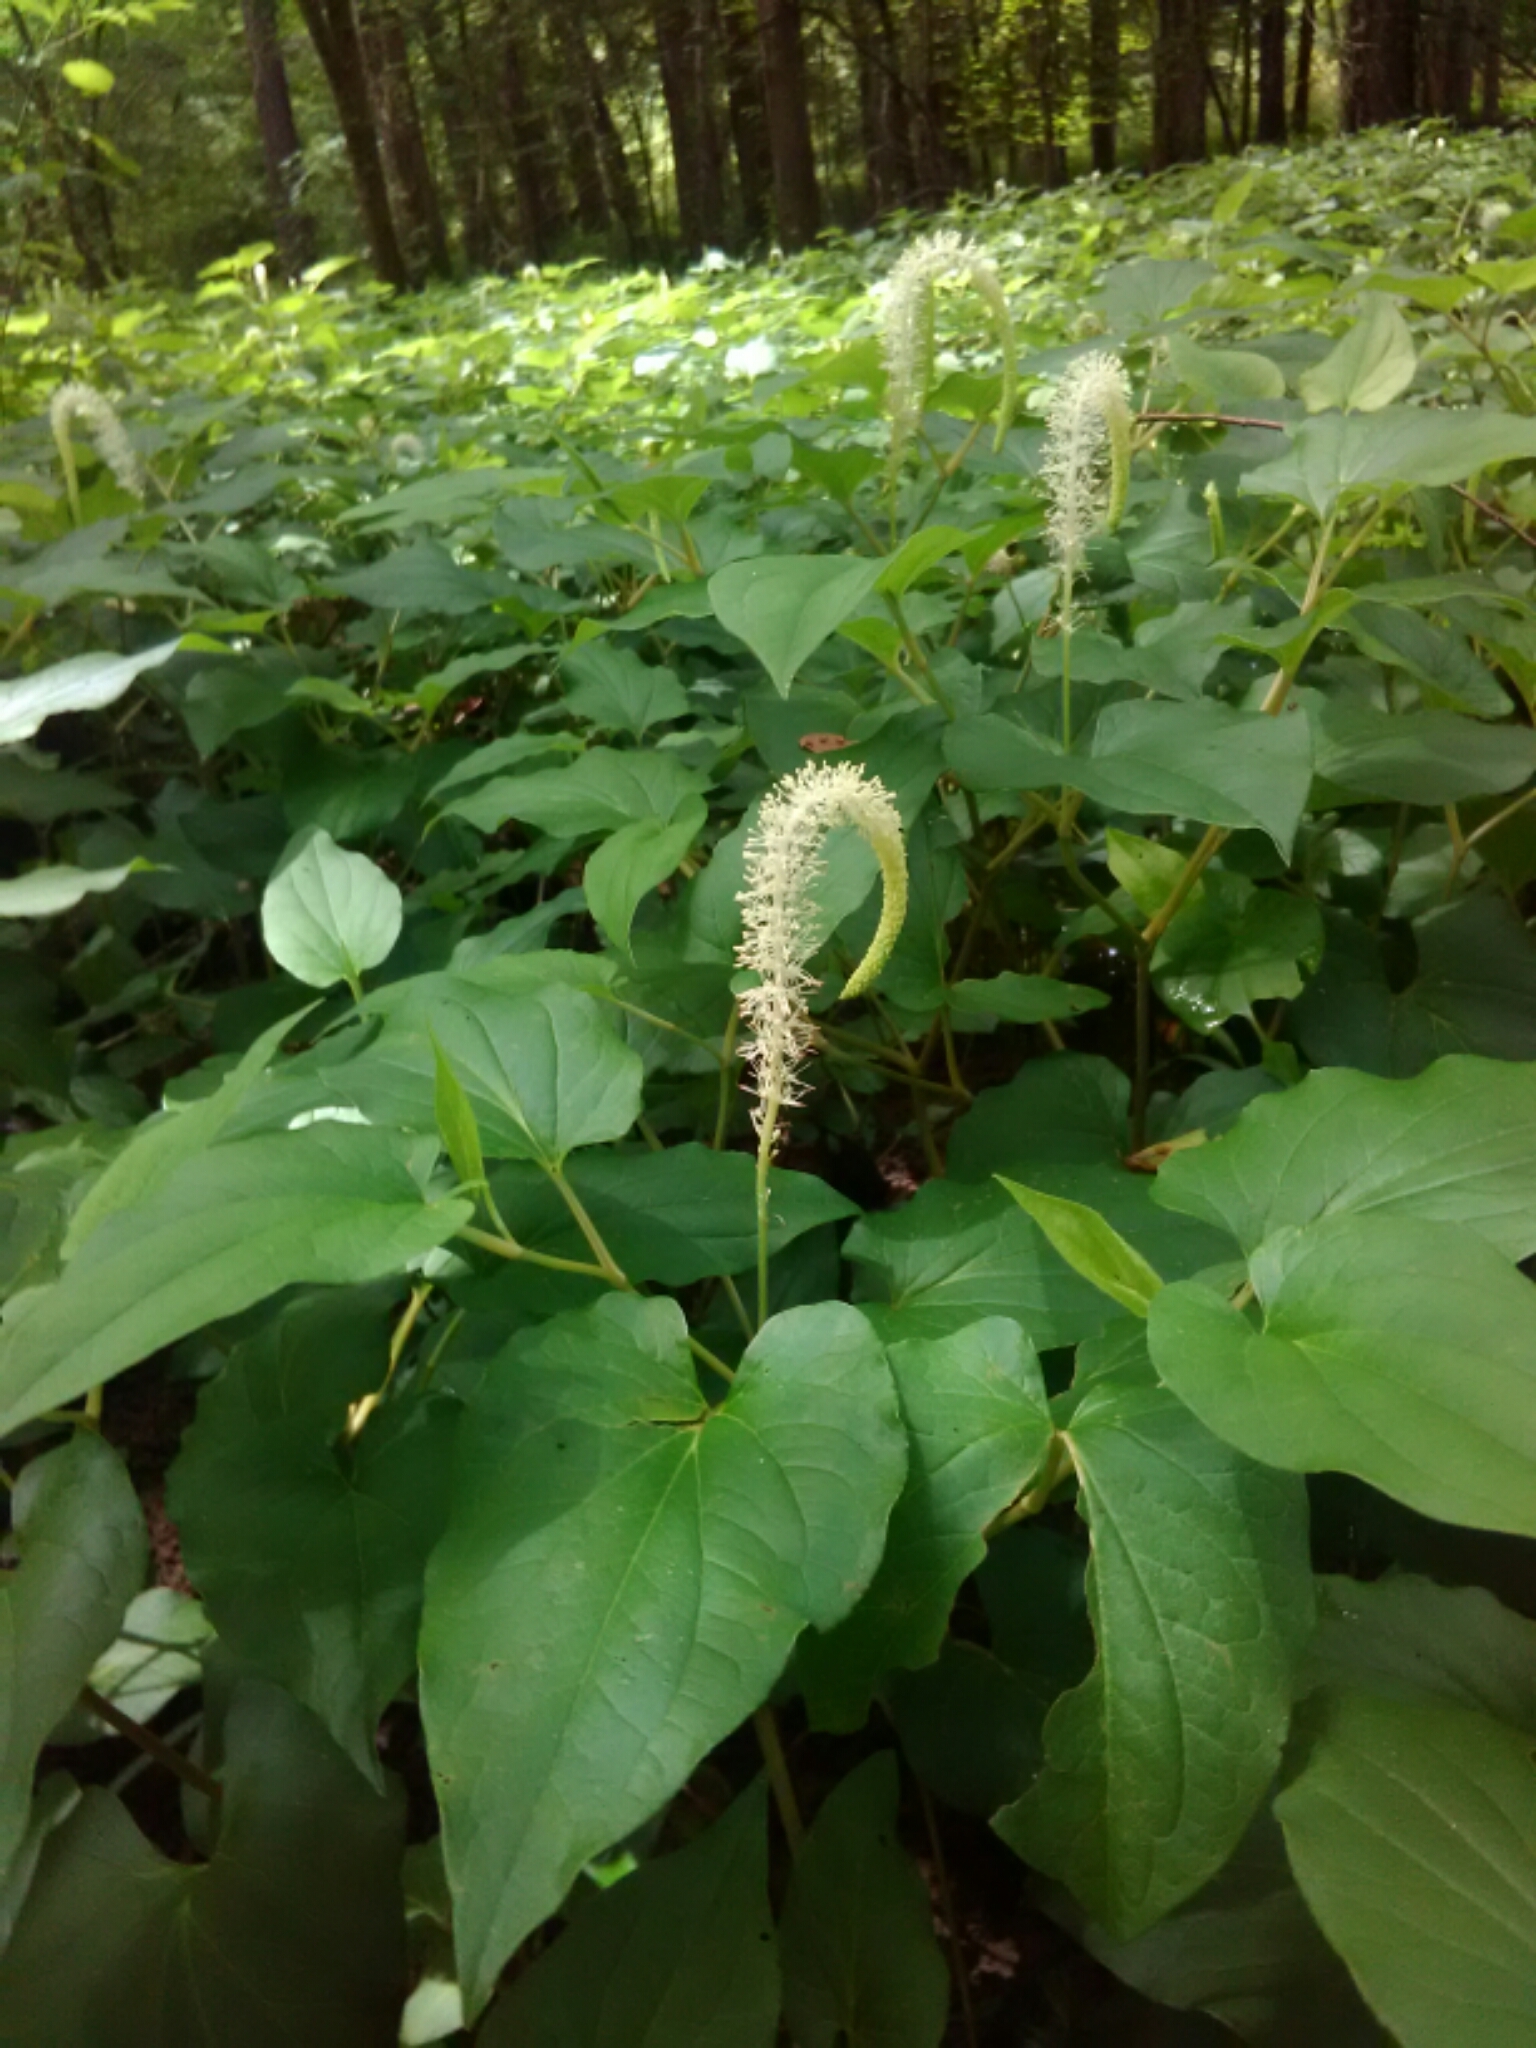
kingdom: Plantae
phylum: Tracheophyta
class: Magnoliopsida
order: Piperales
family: Saururaceae
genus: Saururus
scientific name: Saururus cernuus
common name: Lizard's-tail
